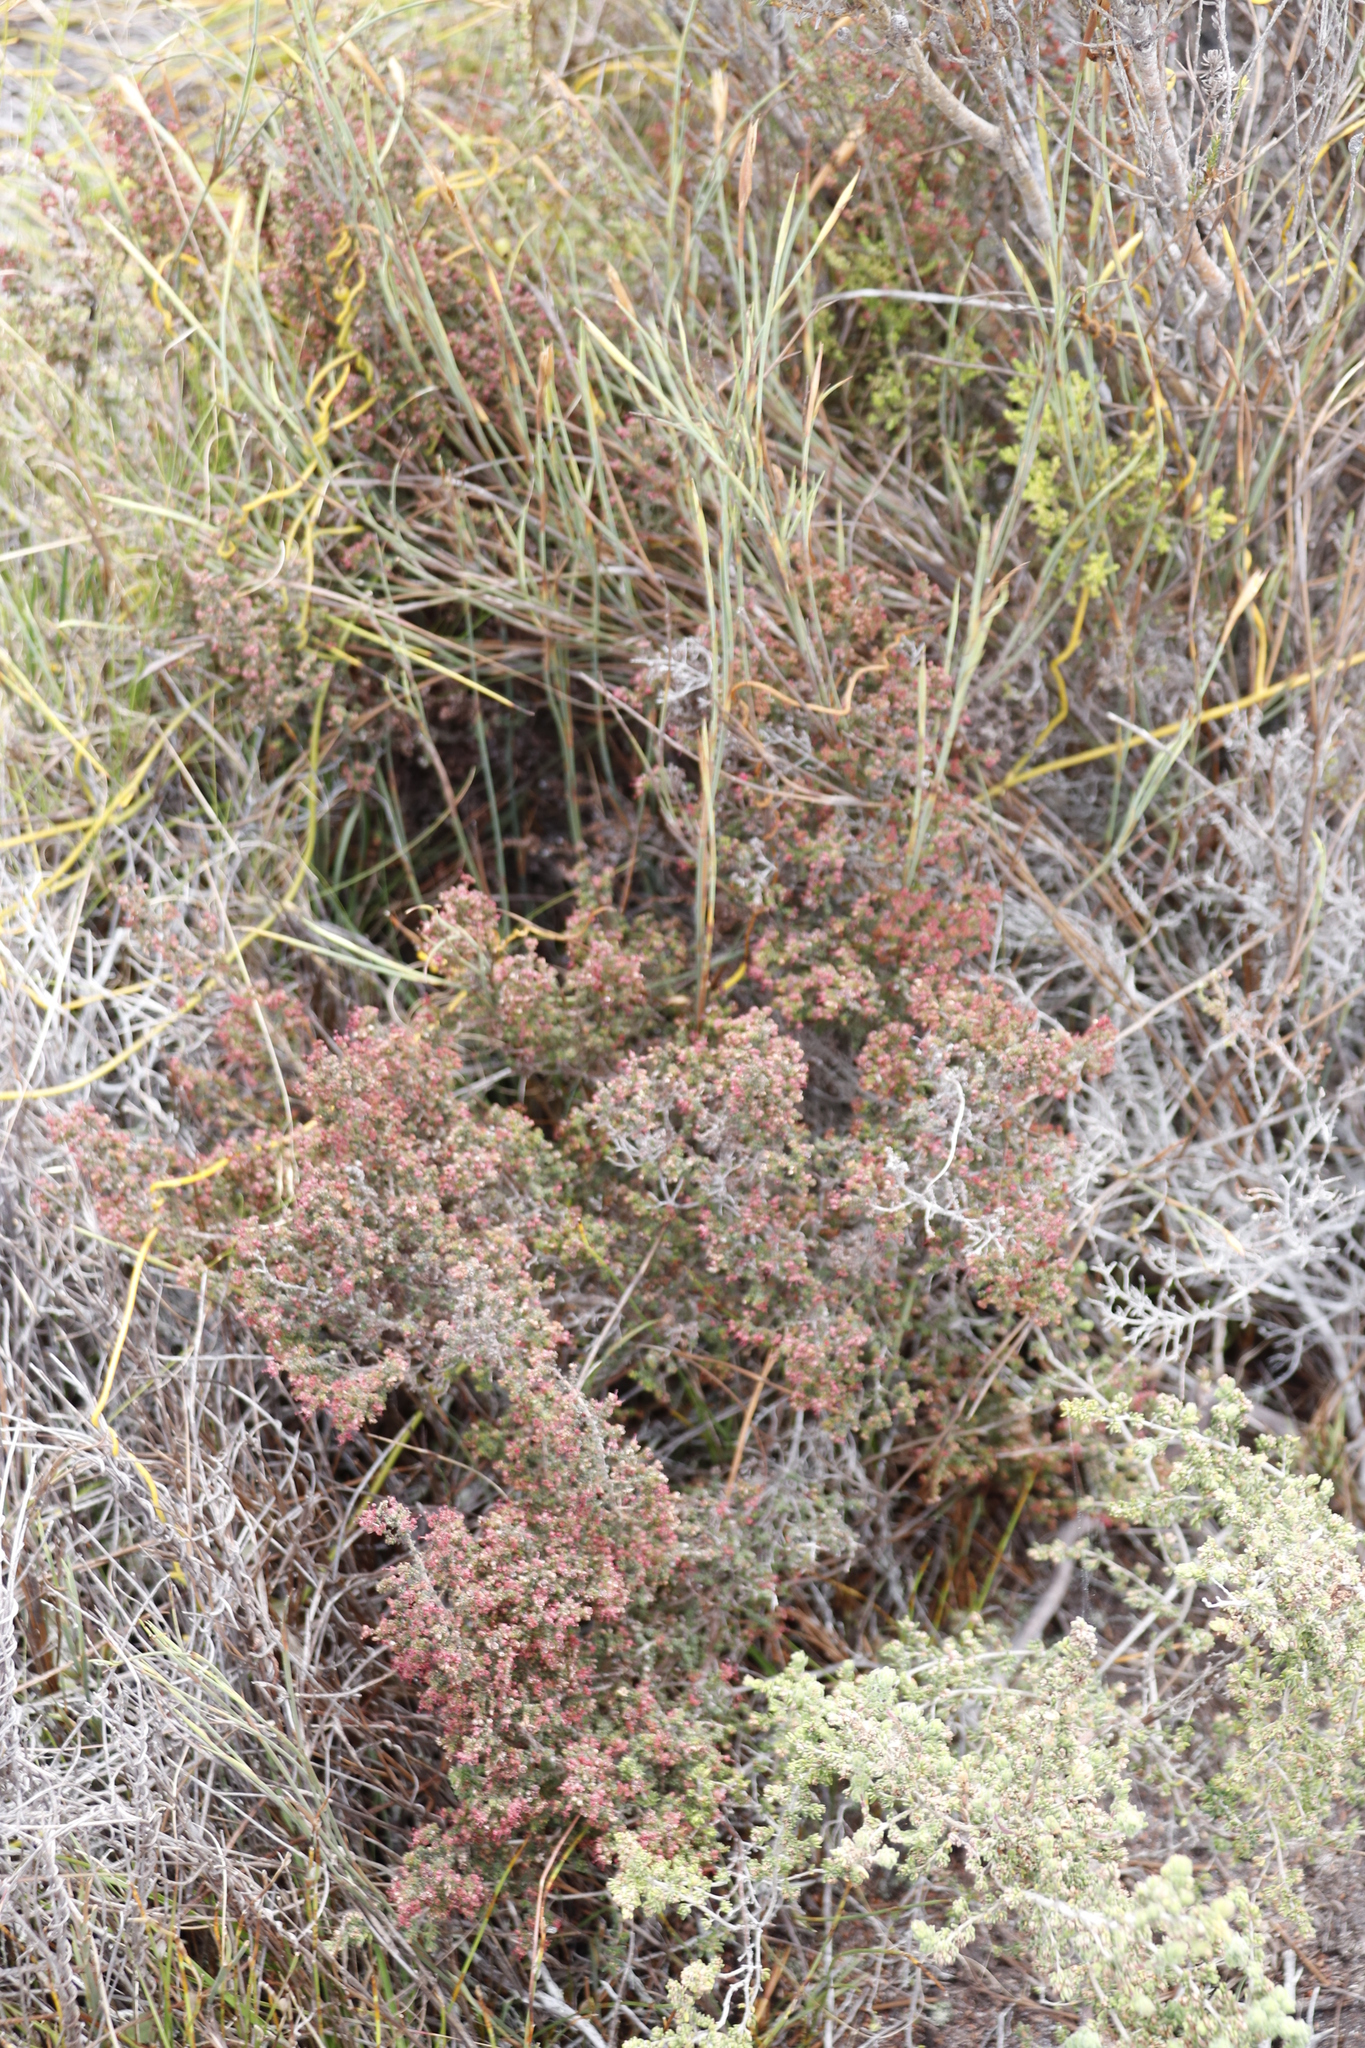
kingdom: Plantae
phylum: Tracheophyta
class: Magnoliopsida
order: Ericales
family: Ericaceae
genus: Erica
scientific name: Erica exleeana
